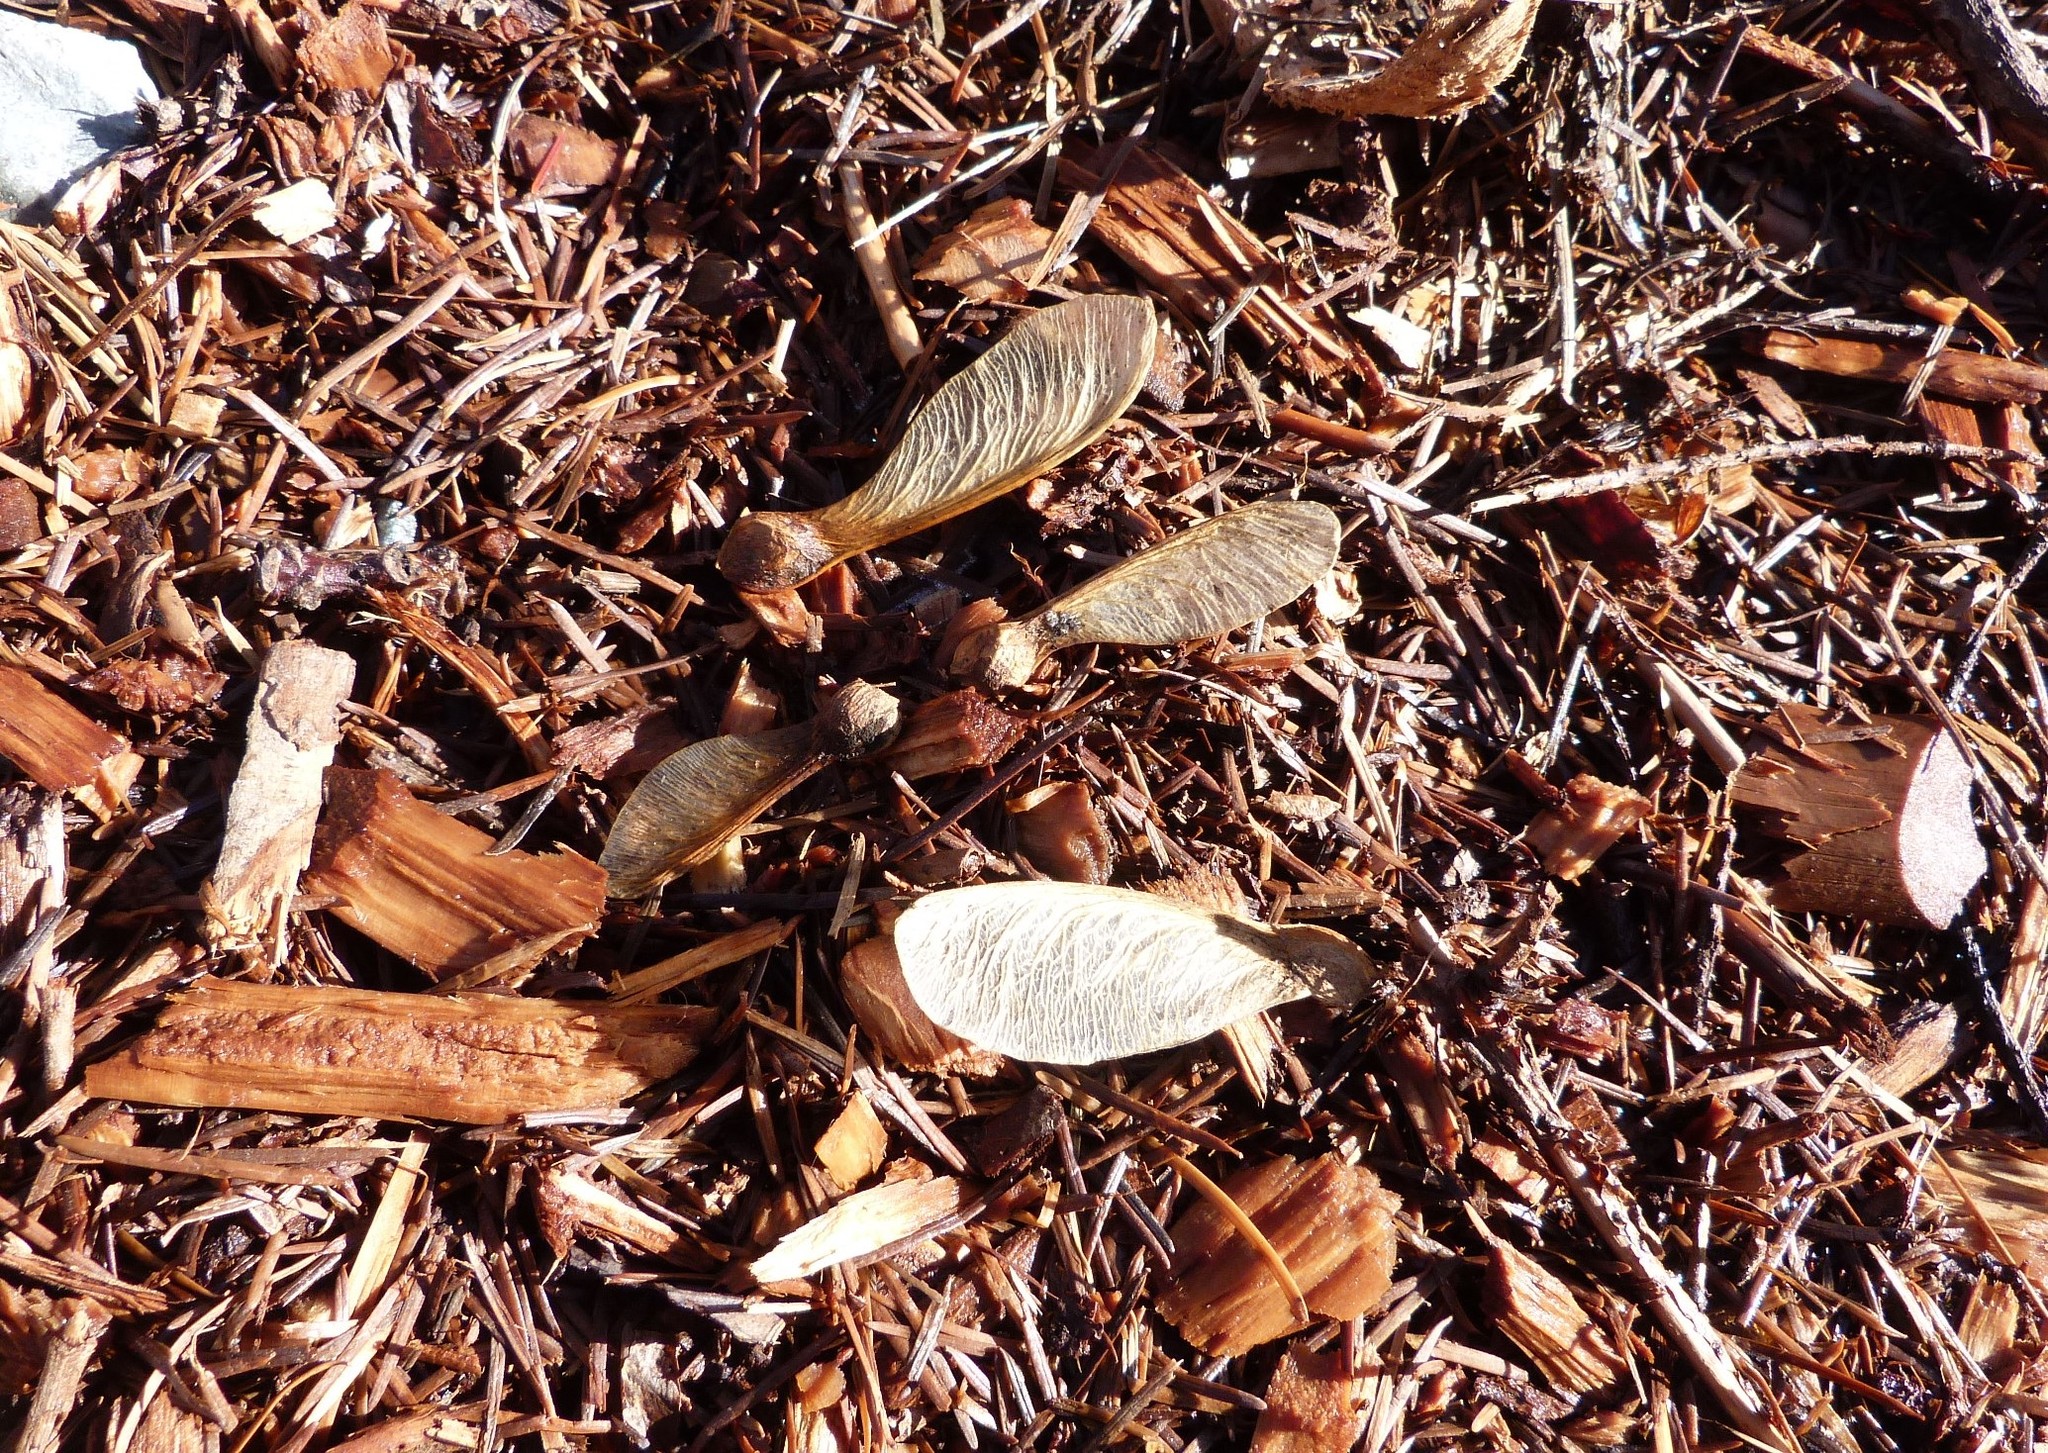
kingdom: Plantae
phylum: Tracheophyta
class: Magnoliopsida
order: Sapindales
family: Sapindaceae
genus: Acer
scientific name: Acer pseudoplatanus
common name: Sycamore
